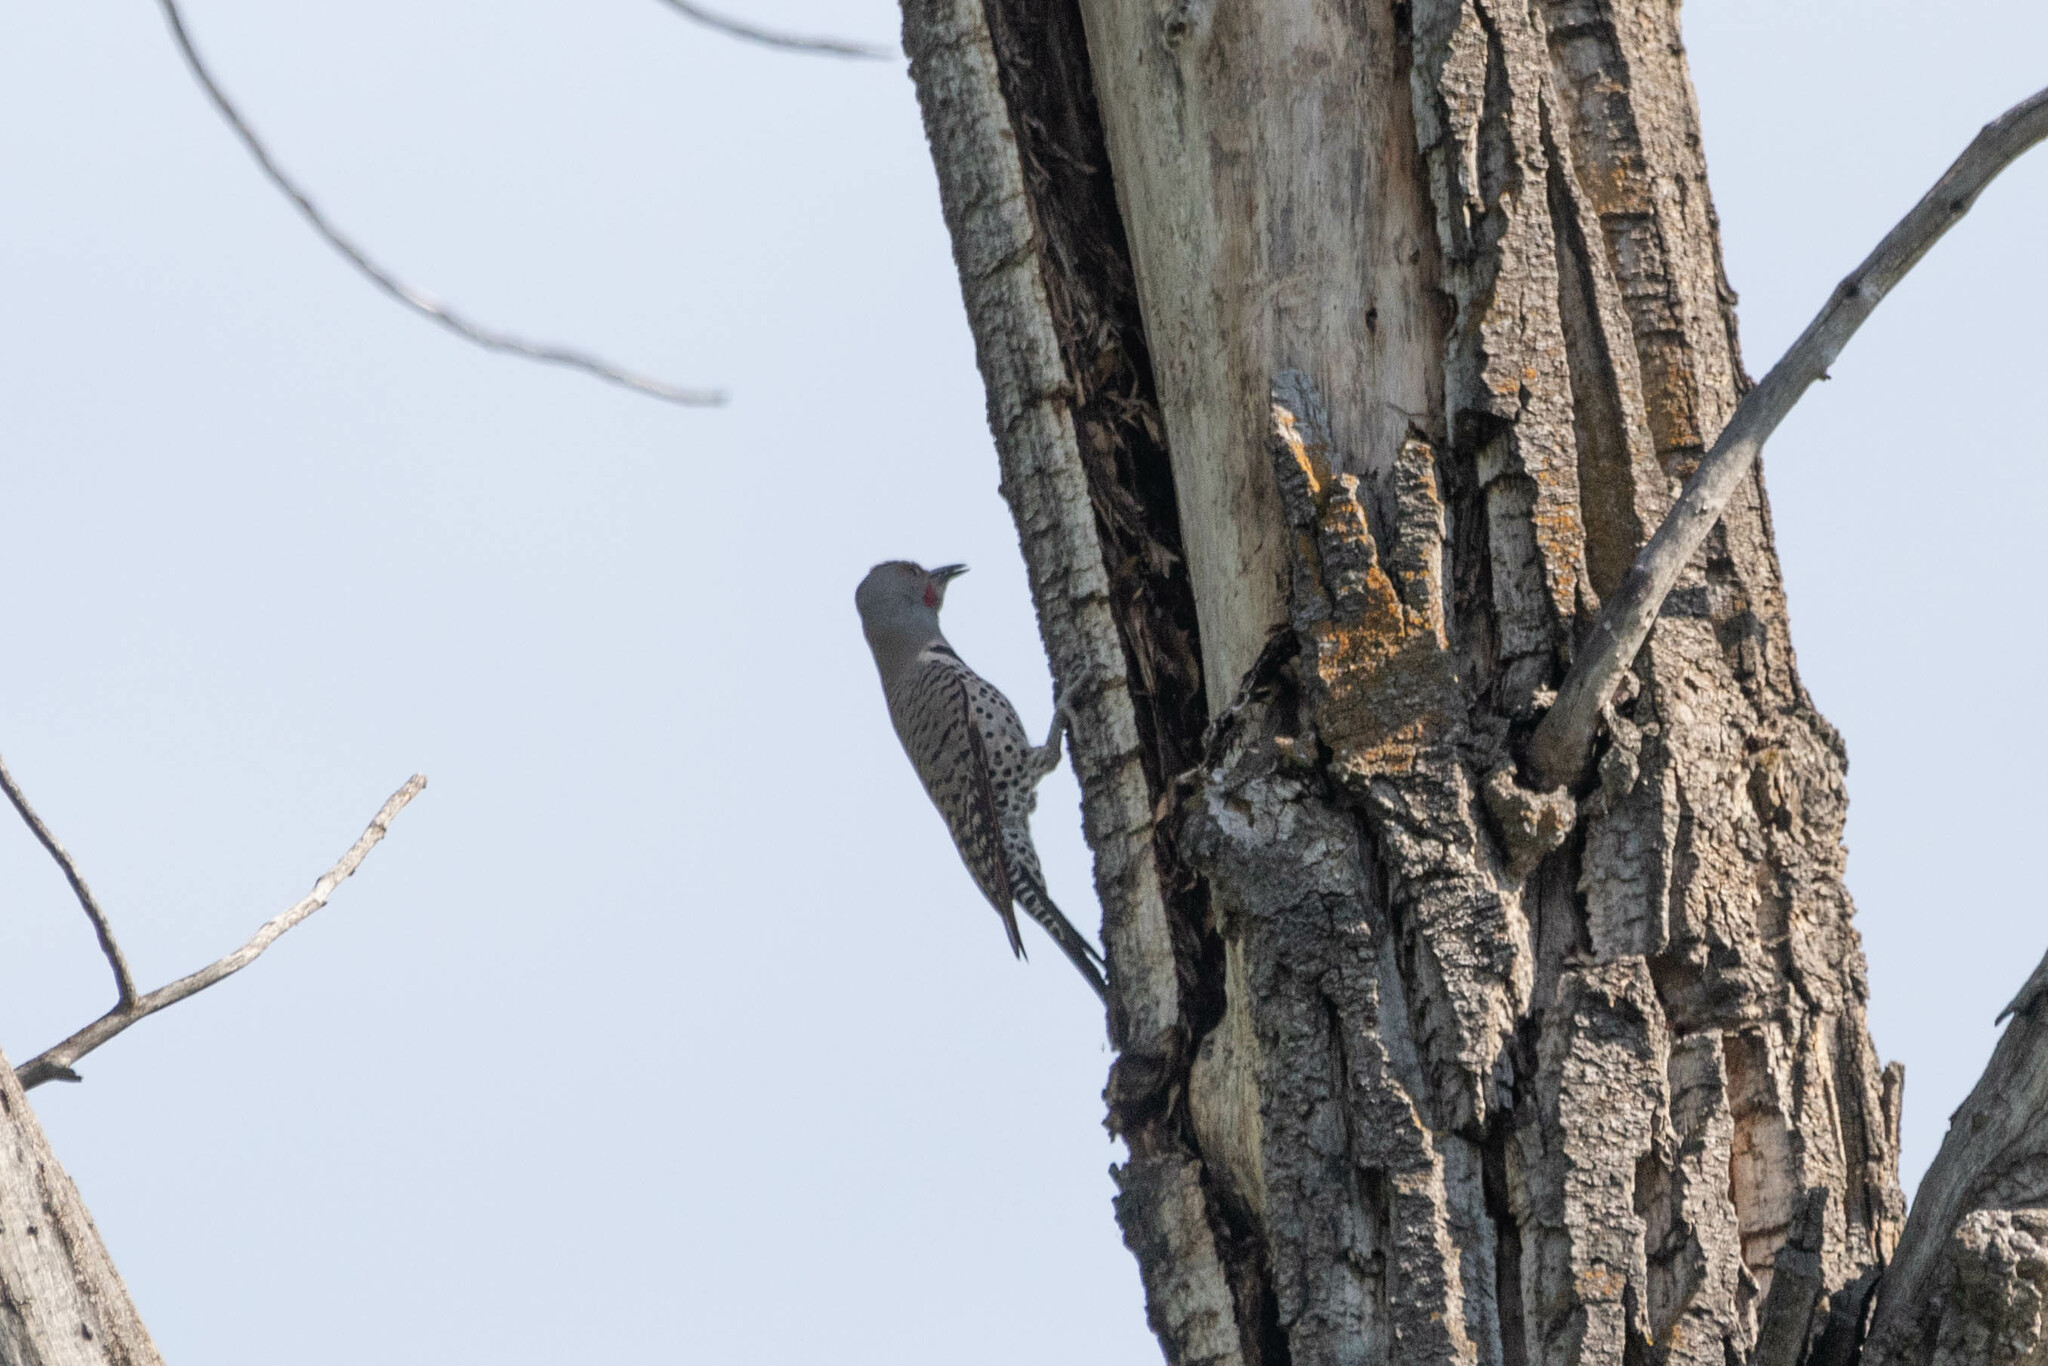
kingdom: Animalia
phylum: Chordata
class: Aves
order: Piciformes
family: Picidae
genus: Colaptes
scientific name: Colaptes auratus
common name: Northern flicker
